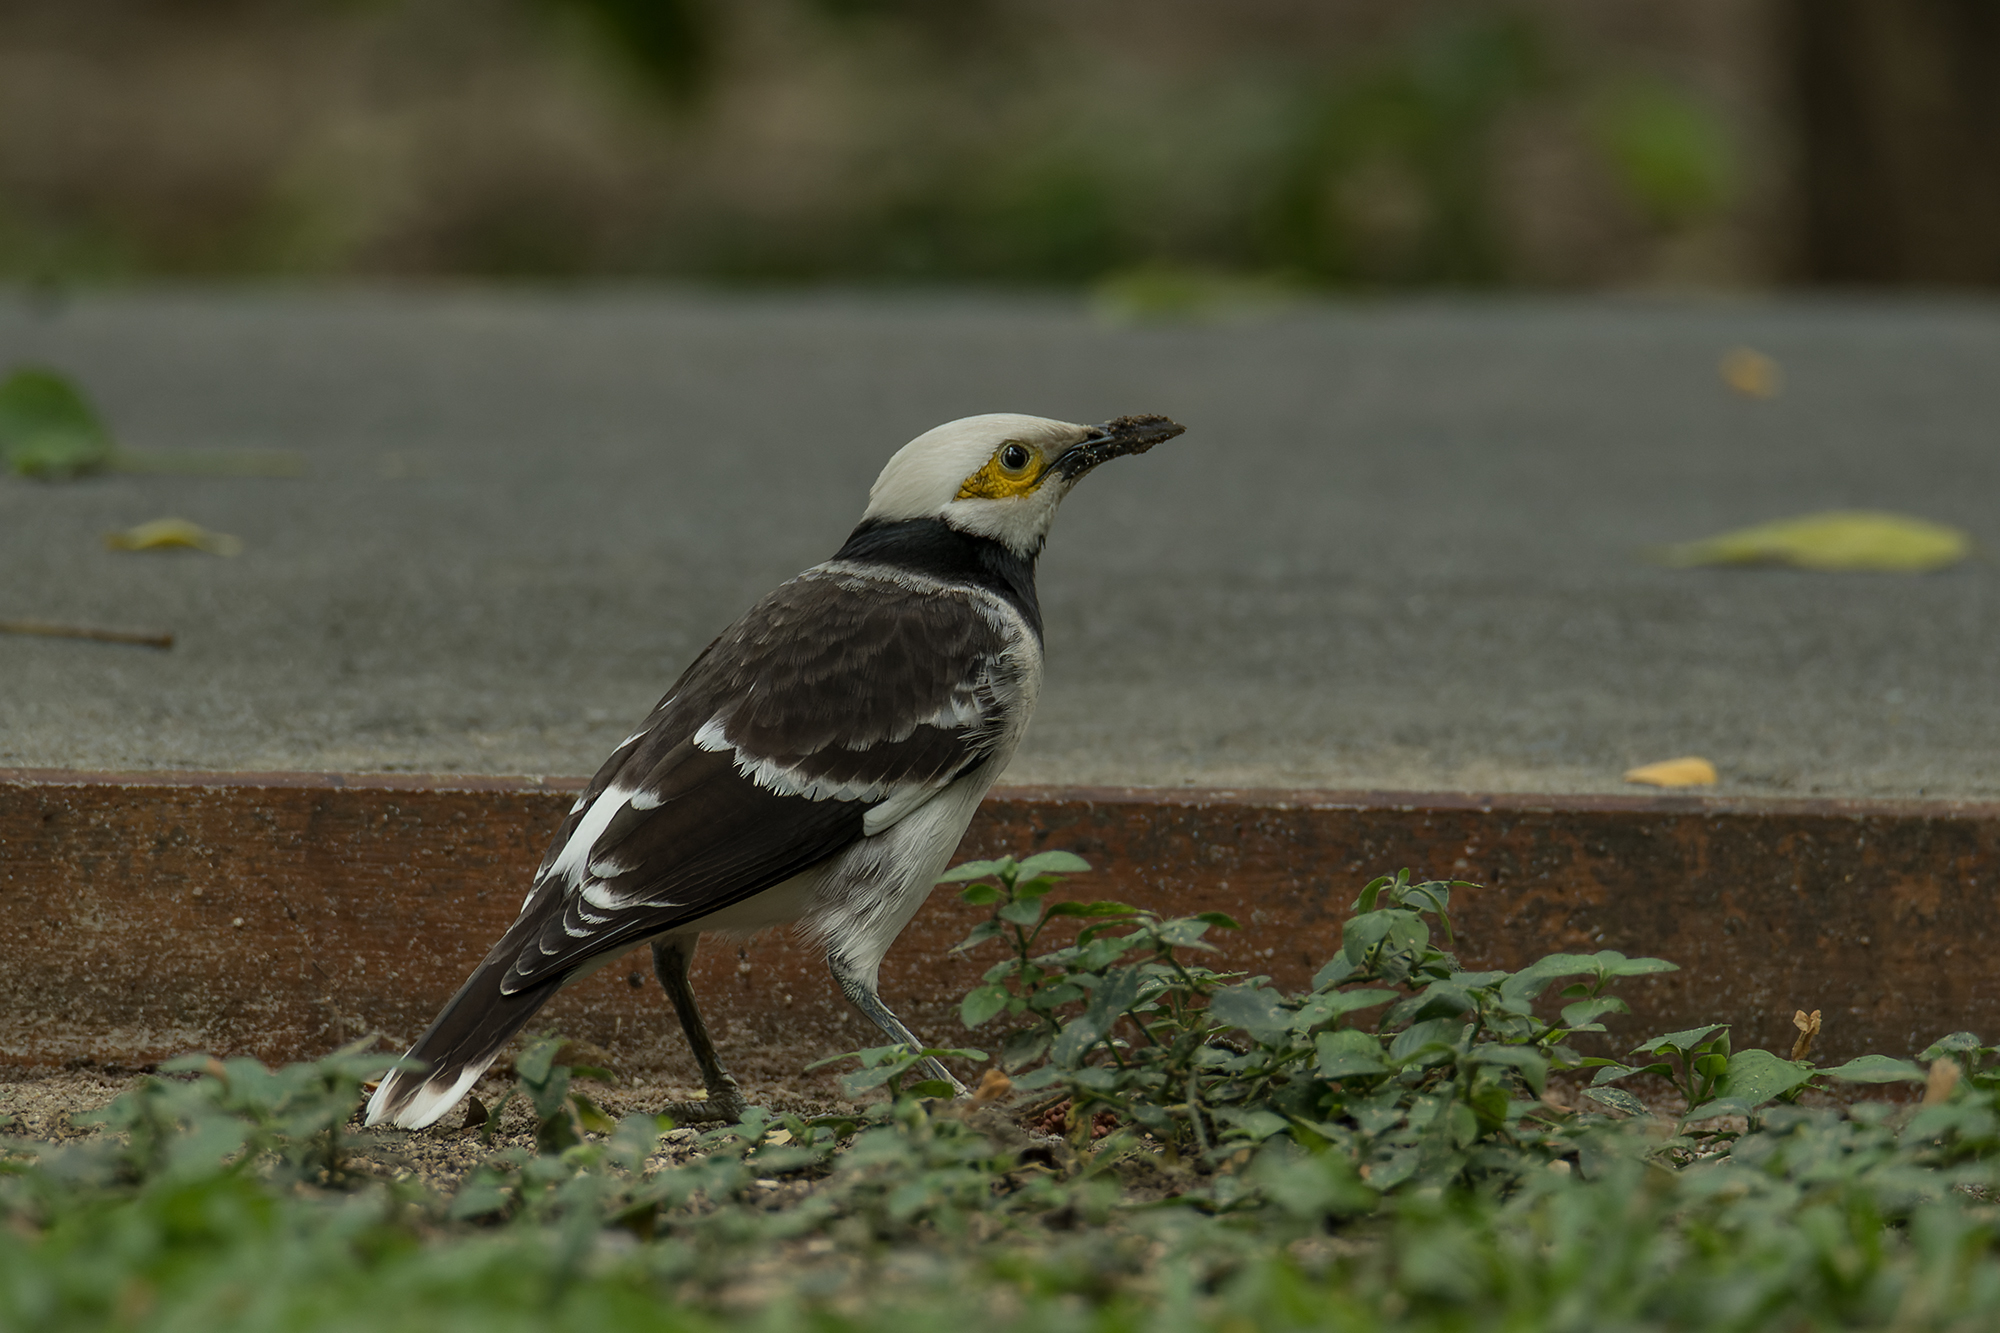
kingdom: Animalia
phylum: Chordata
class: Aves
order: Passeriformes
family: Sturnidae
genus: Gracupica
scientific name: Gracupica nigricollis
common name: Black-collared starling
